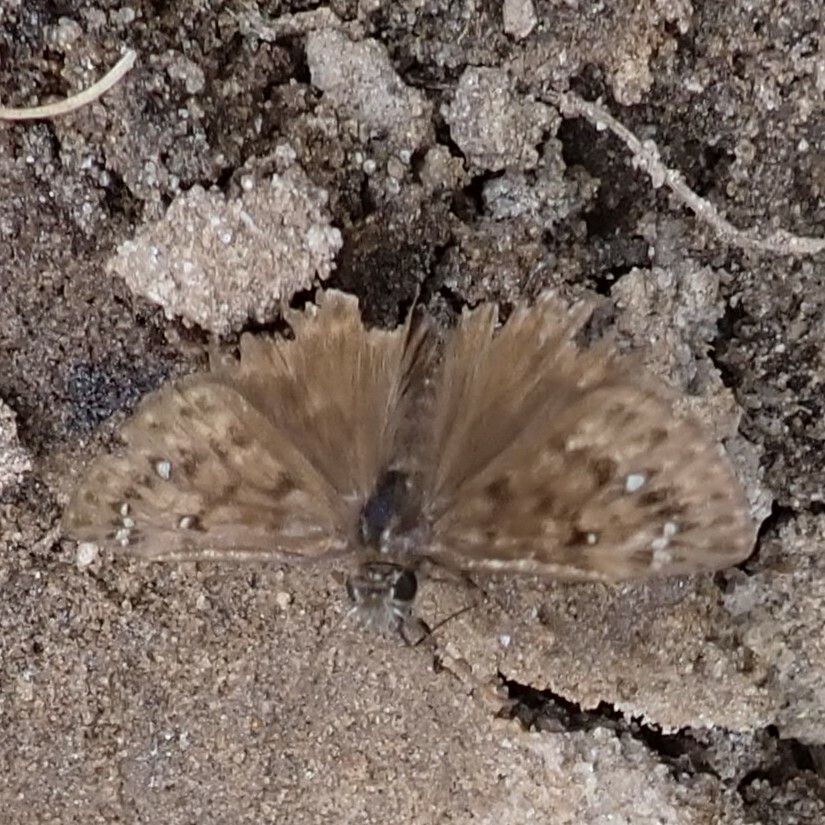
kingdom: Animalia
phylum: Arthropoda
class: Insecta
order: Lepidoptera
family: Hesperiidae
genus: Erynnis
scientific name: Erynnis horatius
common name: Horace's duskywing
